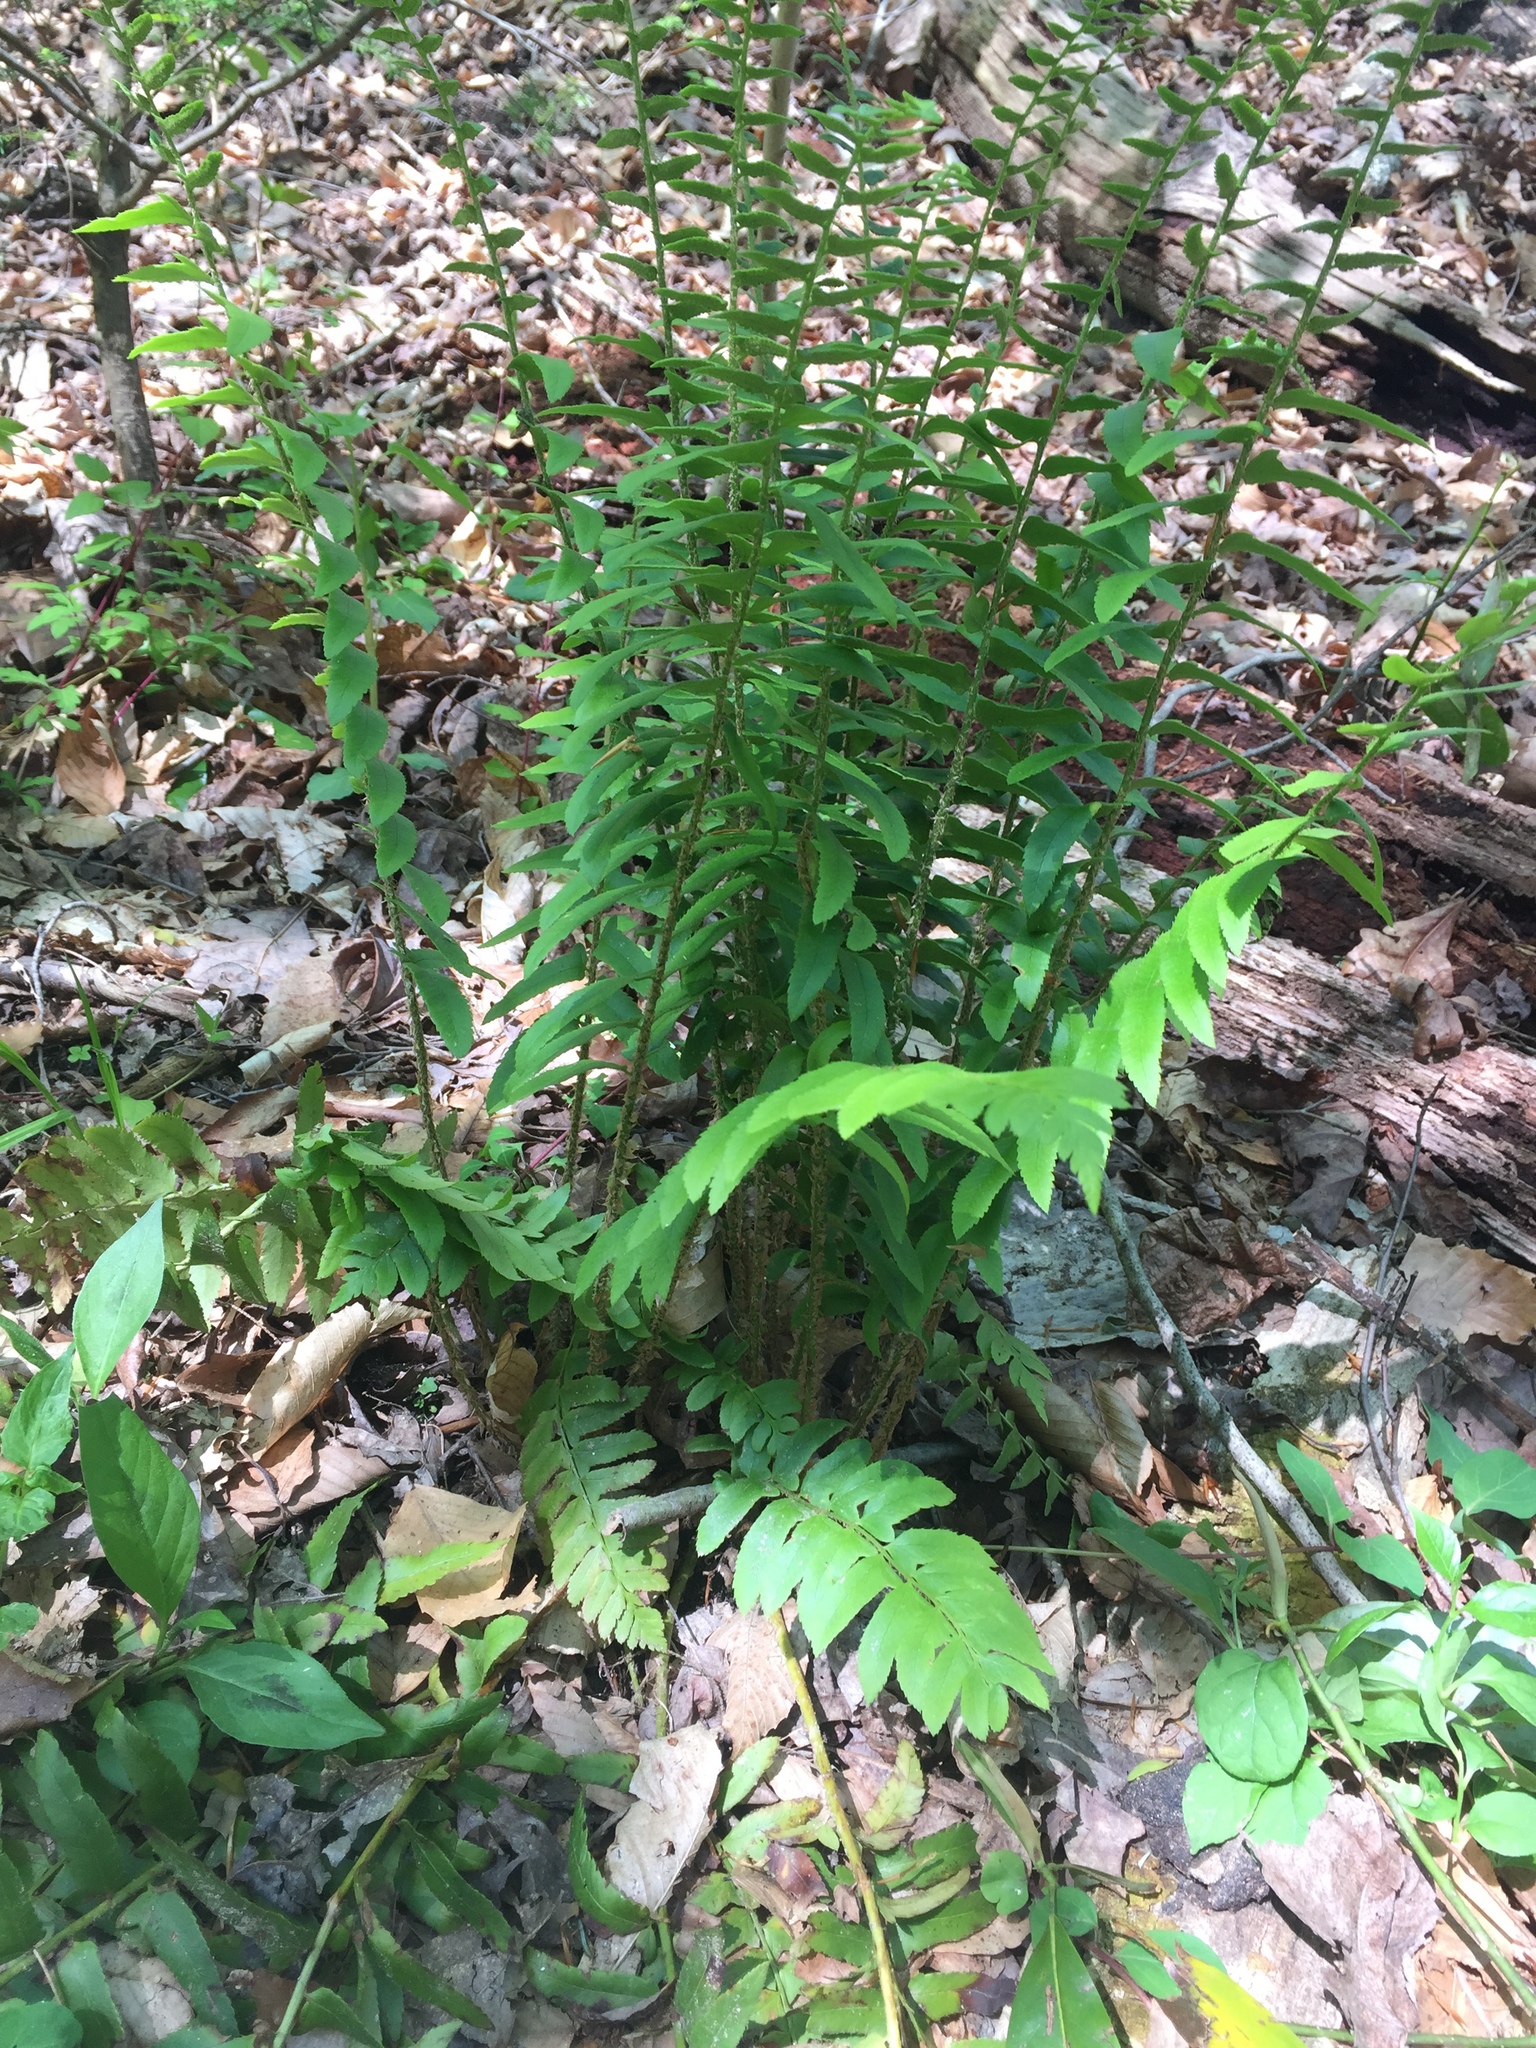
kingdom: Plantae
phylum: Tracheophyta
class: Polypodiopsida
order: Polypodiales
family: Dryopteridaceae
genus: Polystichum
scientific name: Polystichum acrostichoides
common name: Christmas fern
